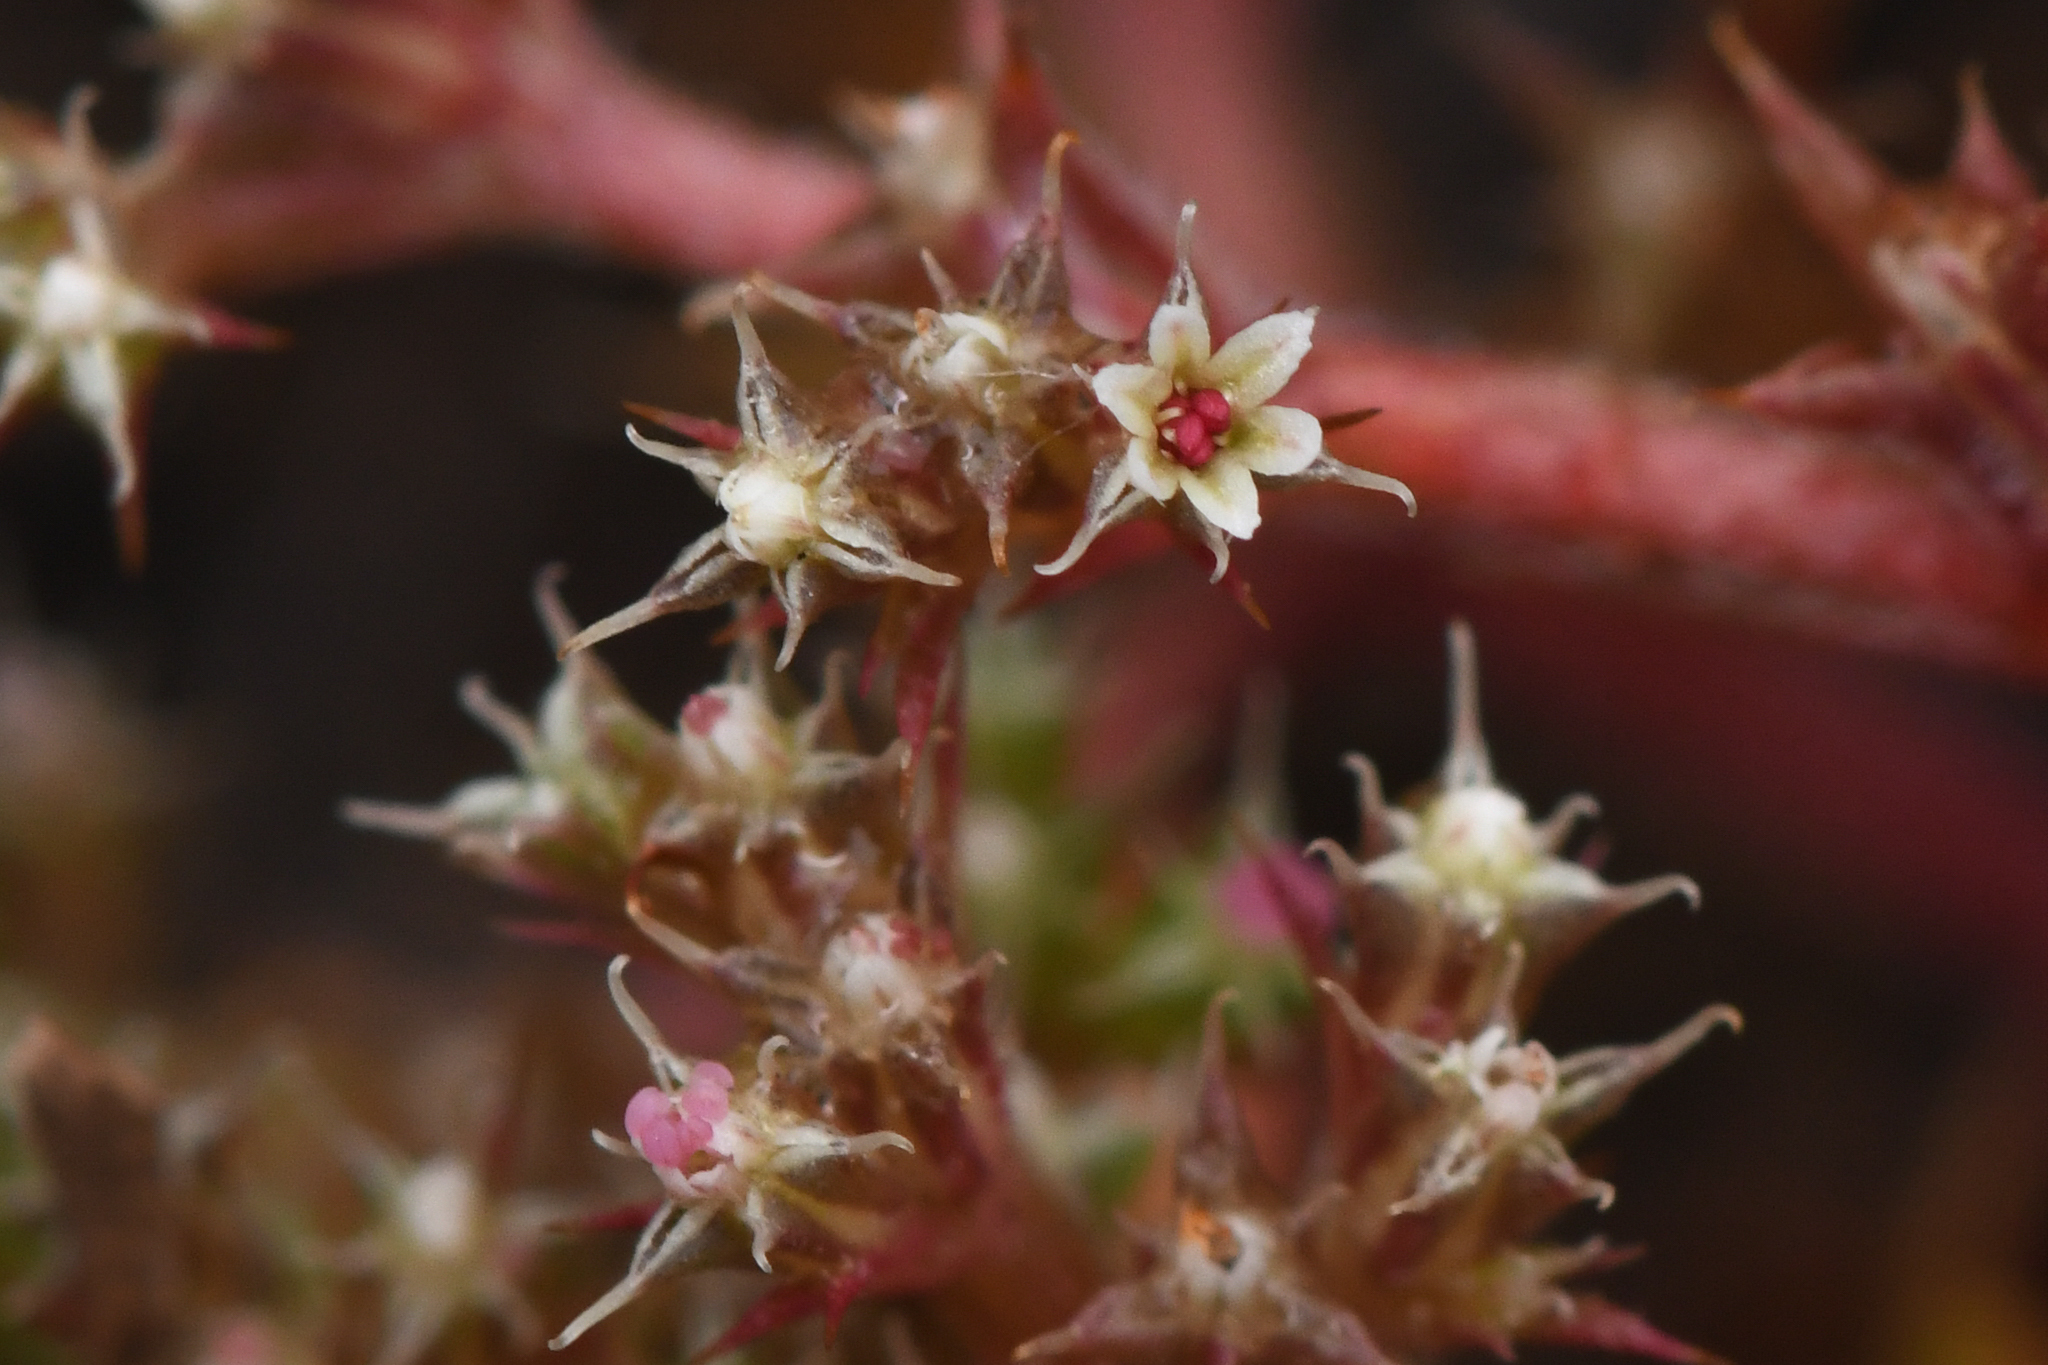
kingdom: Plantae
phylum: Tracheophyta
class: Magnoliopsida
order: Caryophyllales
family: Polygonaceae
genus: Chorizanthe
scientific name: Chorizanthe aphanantha
